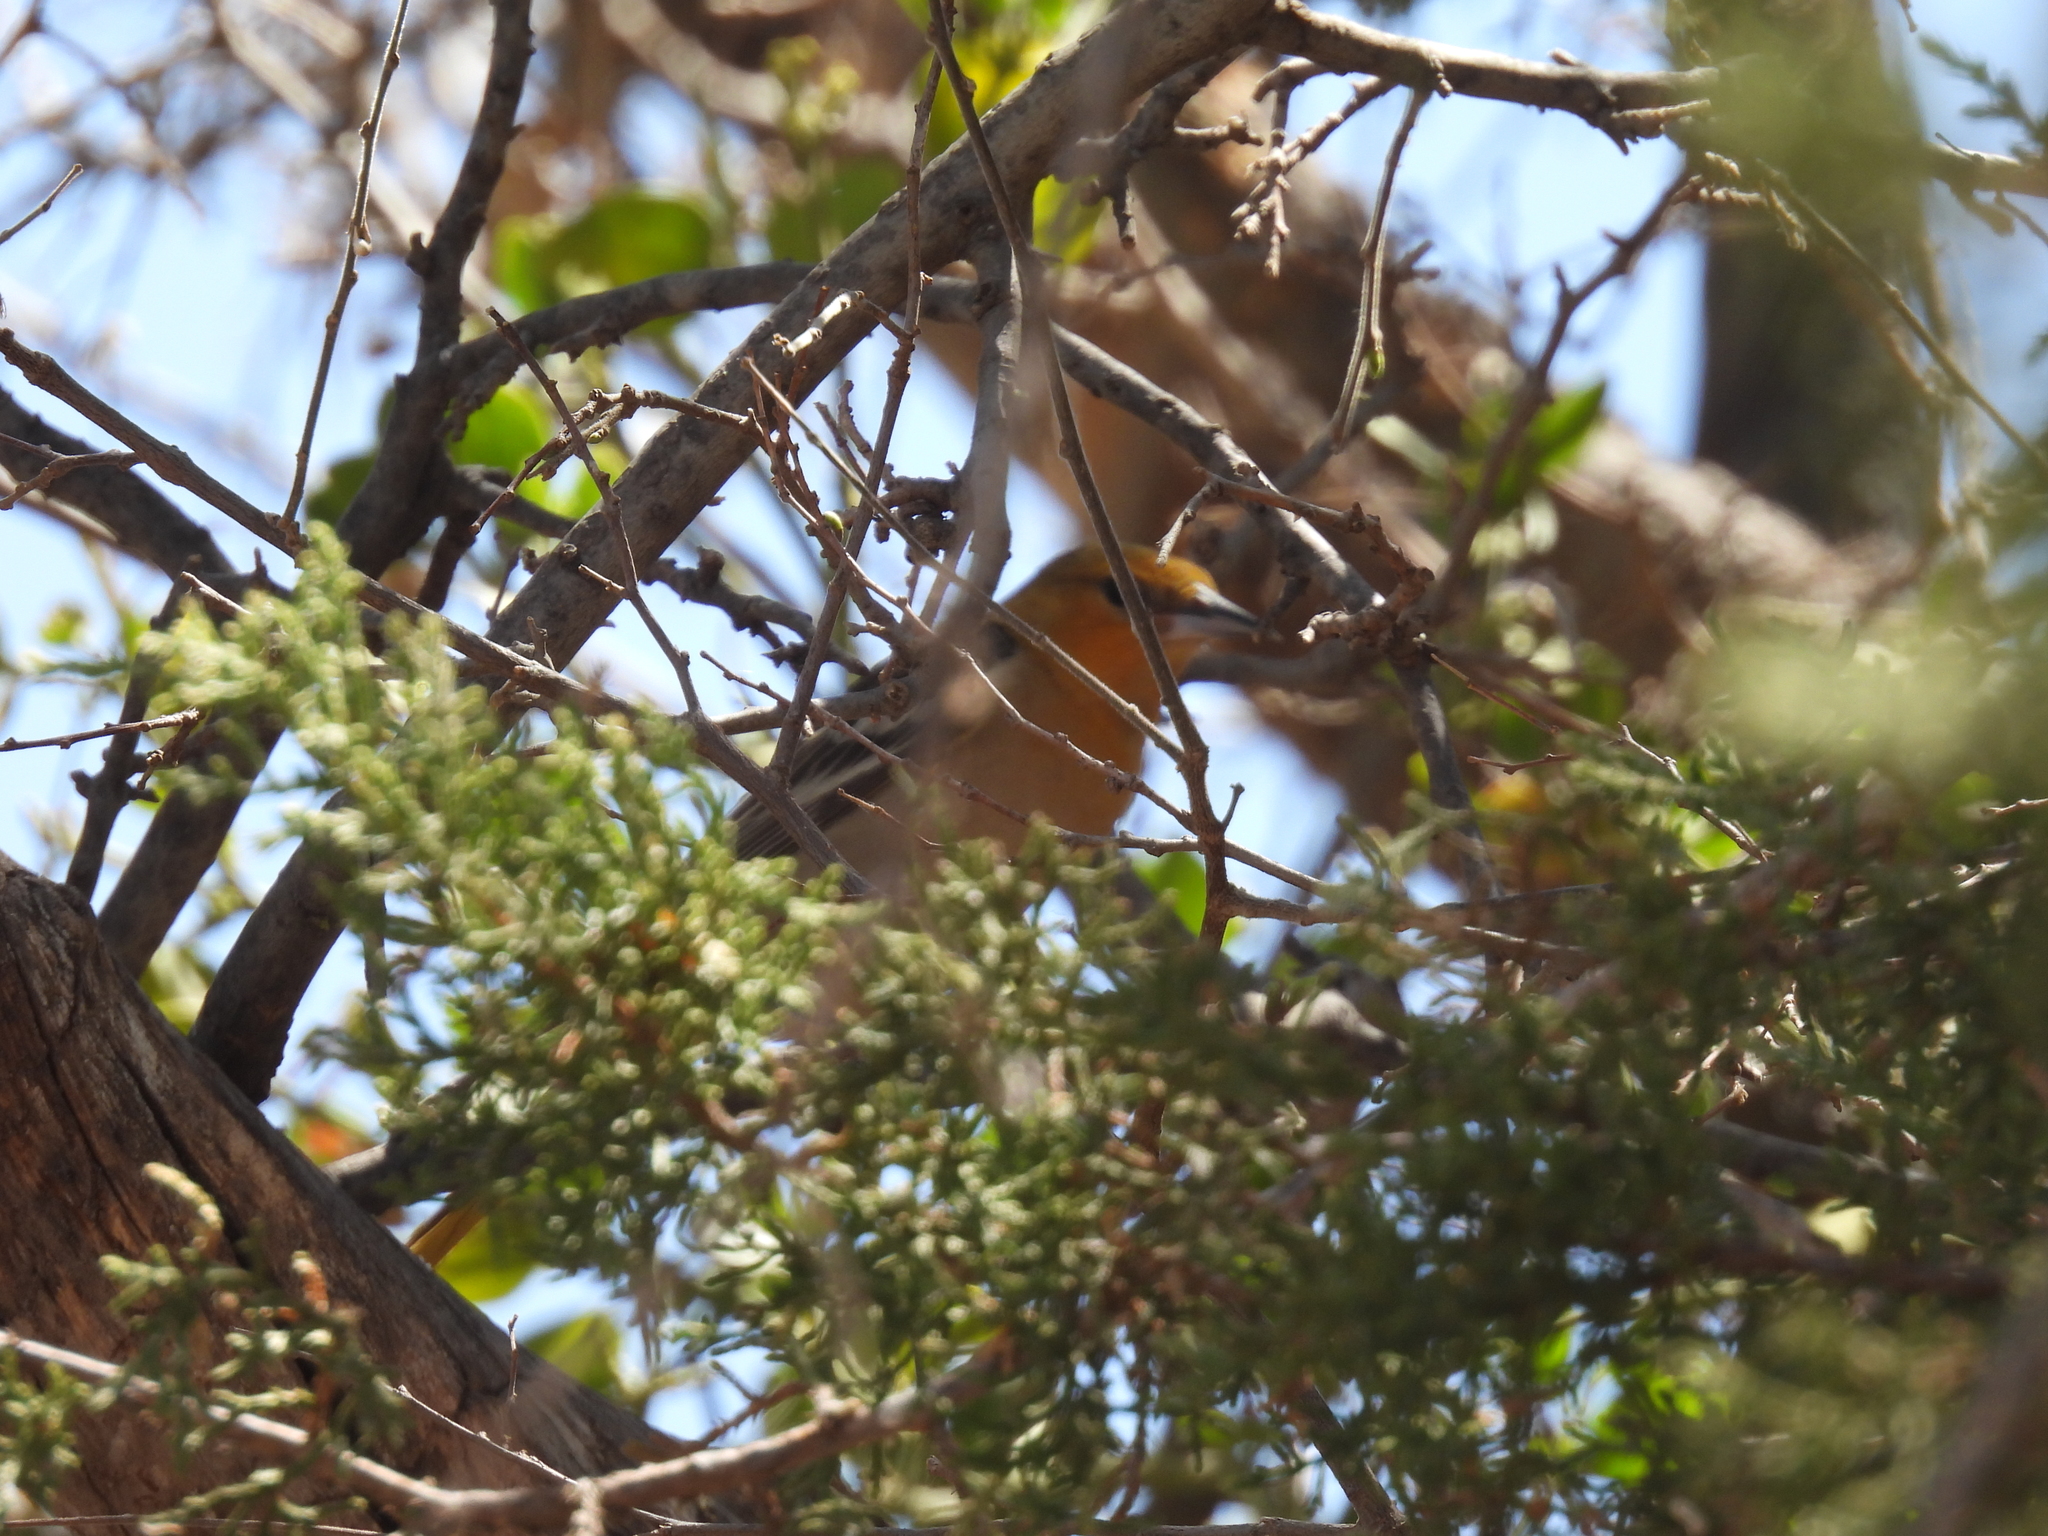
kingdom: Animalia
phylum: Chordata
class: Aves
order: Passeriformes
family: Icteridae
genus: Icterus
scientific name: Icterus bullockii
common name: Bullock's oriole
